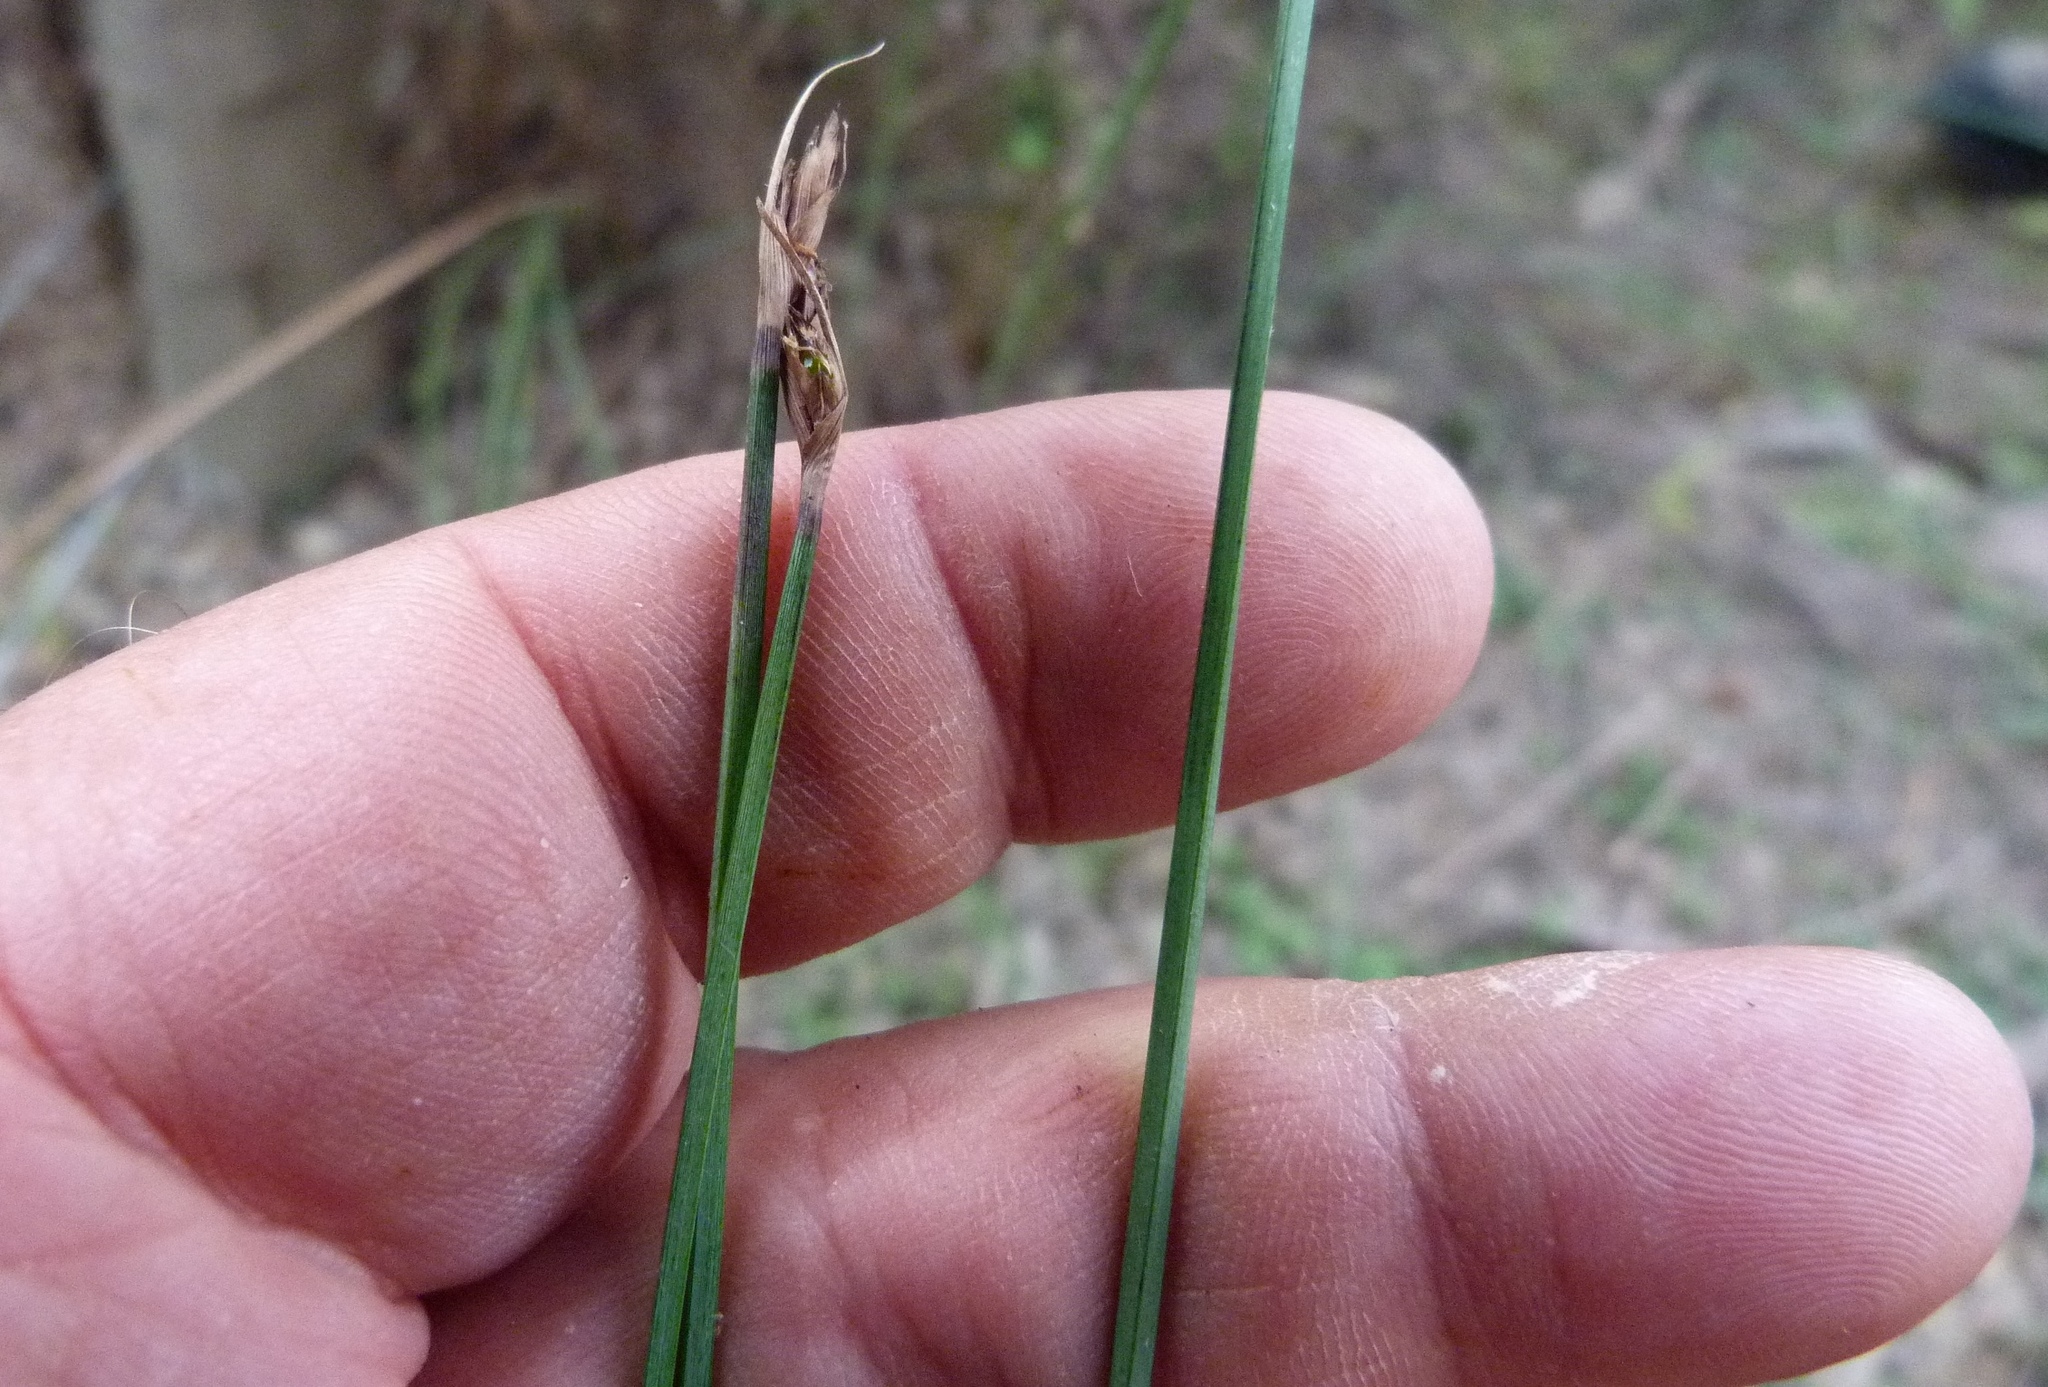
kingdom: Plantae
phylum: Tracheophyta
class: Liliopsida
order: Poales
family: Cyperaceae
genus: Lepidosperma
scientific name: Lepidosperma australe
